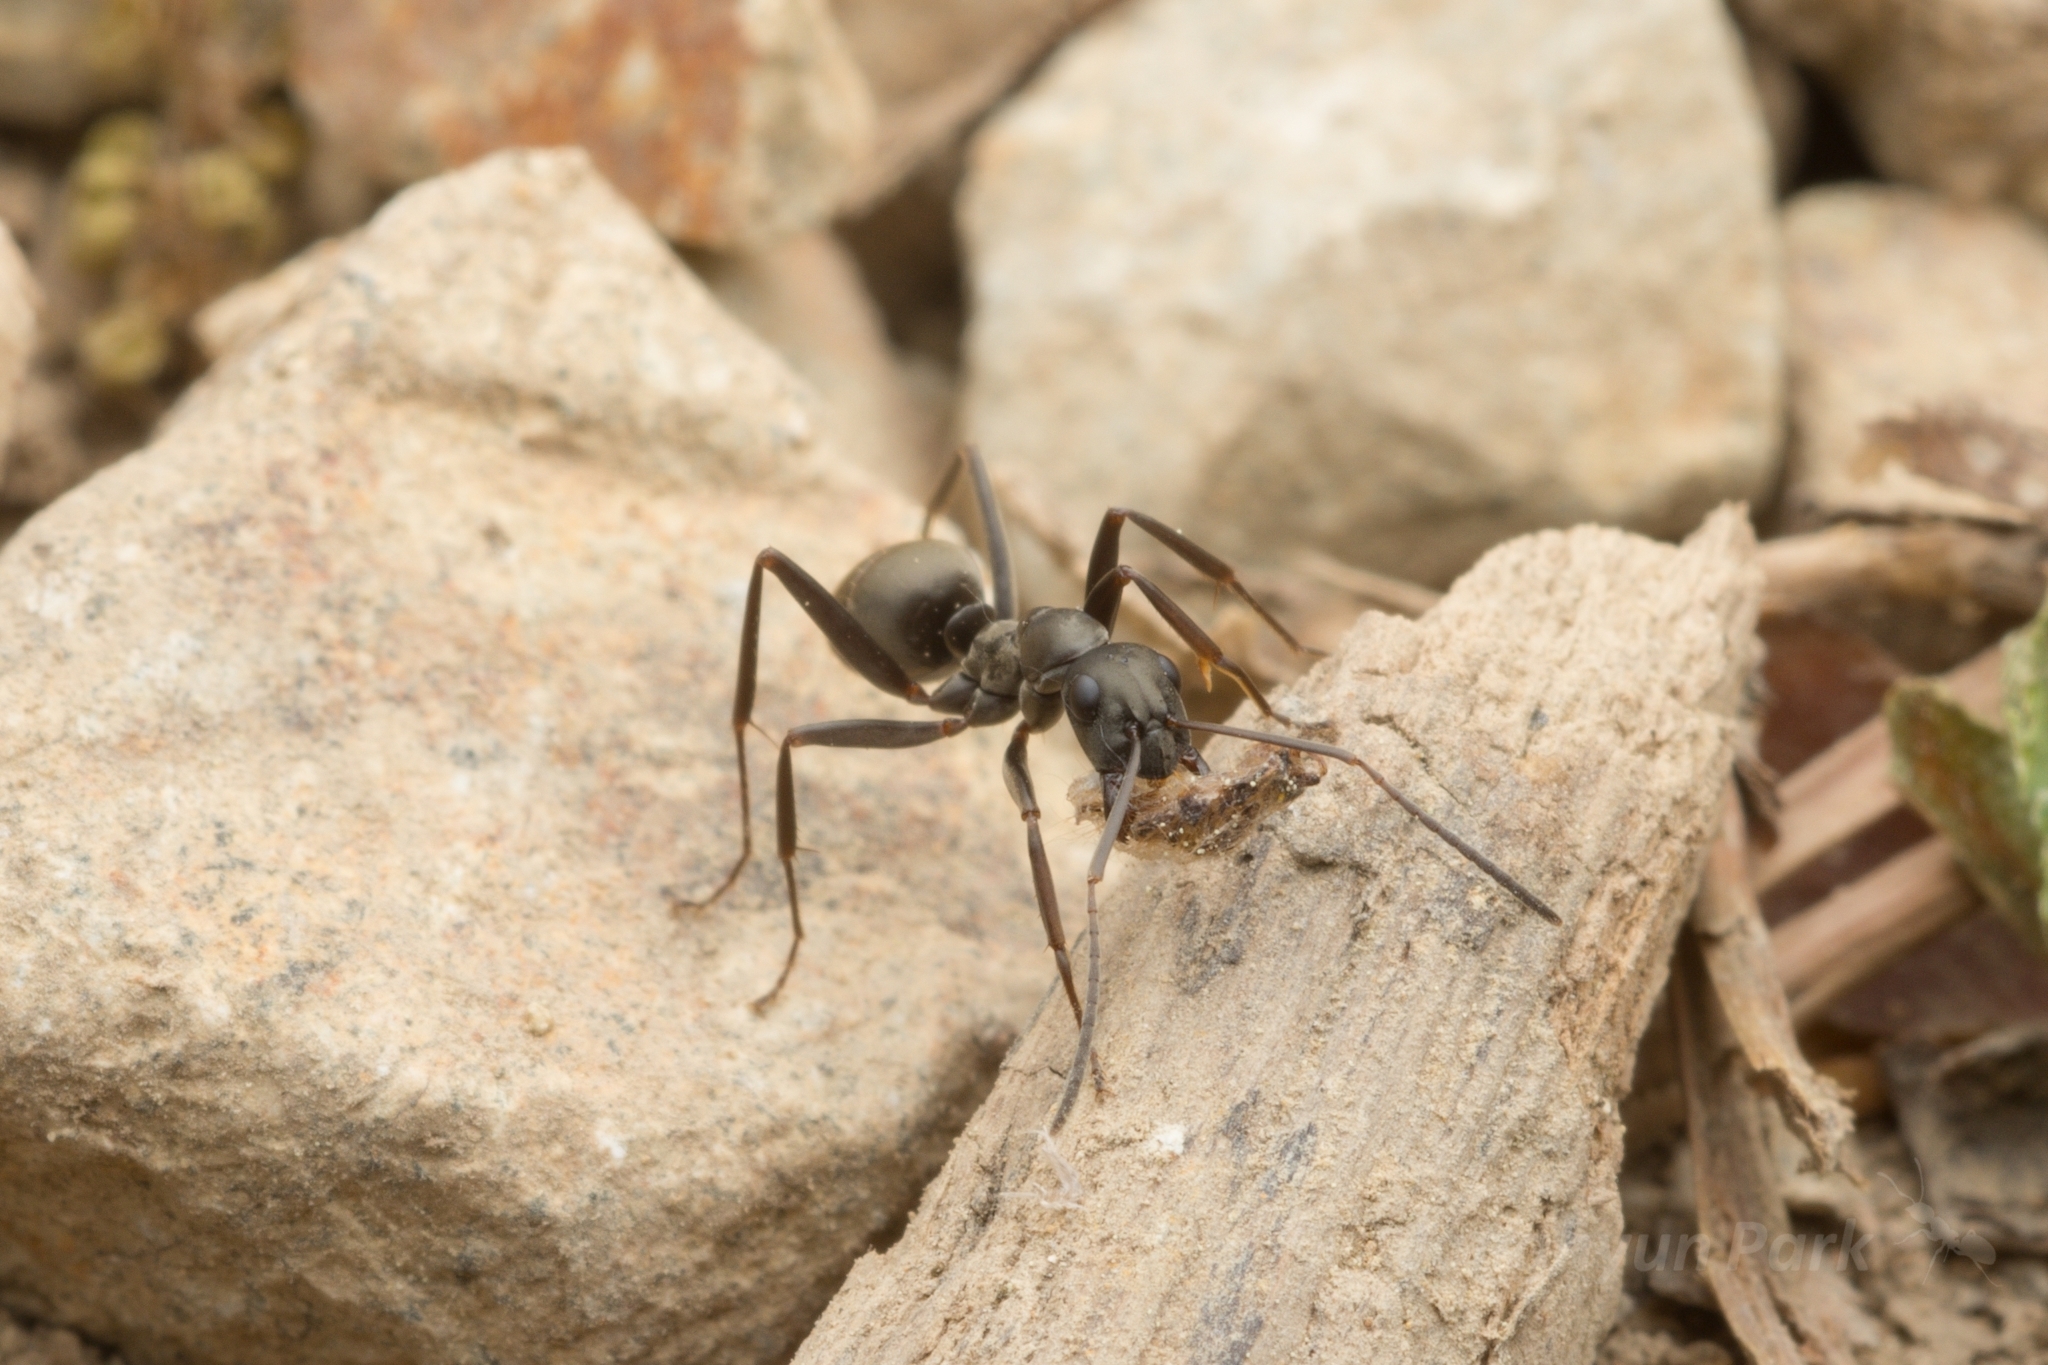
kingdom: Animalia
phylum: Arthropoda
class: Insecta
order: Hymenoptera
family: Formicidae
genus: Formica
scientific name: Formica hayashi
